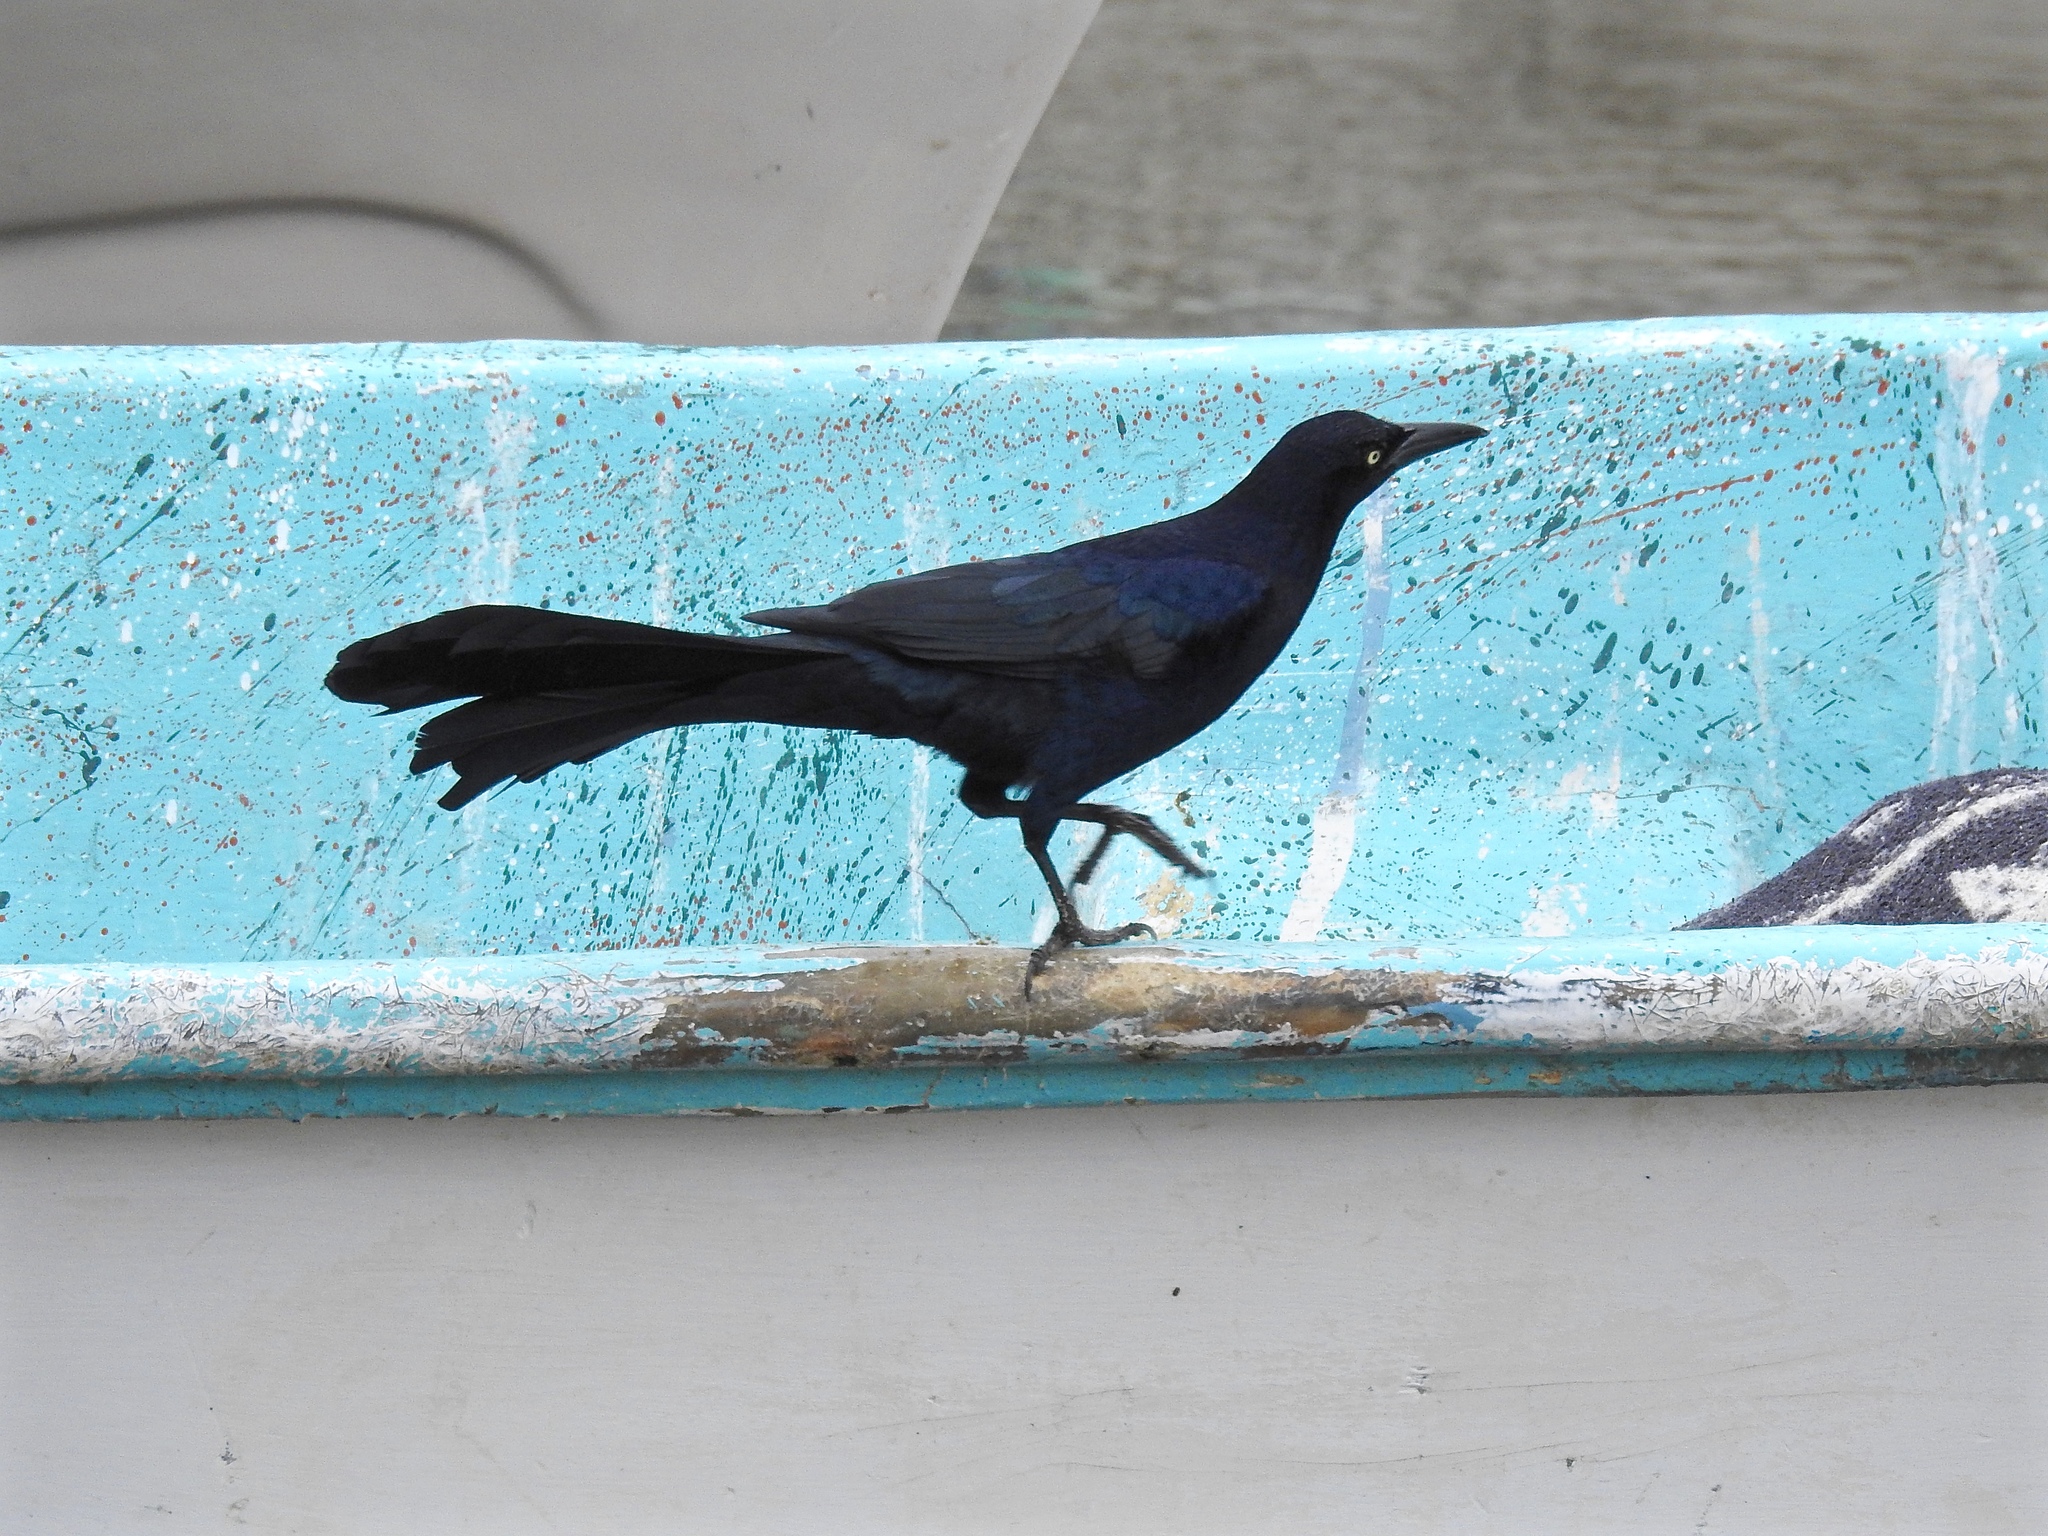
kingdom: Animalia
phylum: Chordata
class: Aves
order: Passeriformes
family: Icteridae
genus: Quiscalus
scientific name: Quiscalus mexicanus
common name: Great-tailed grackle
